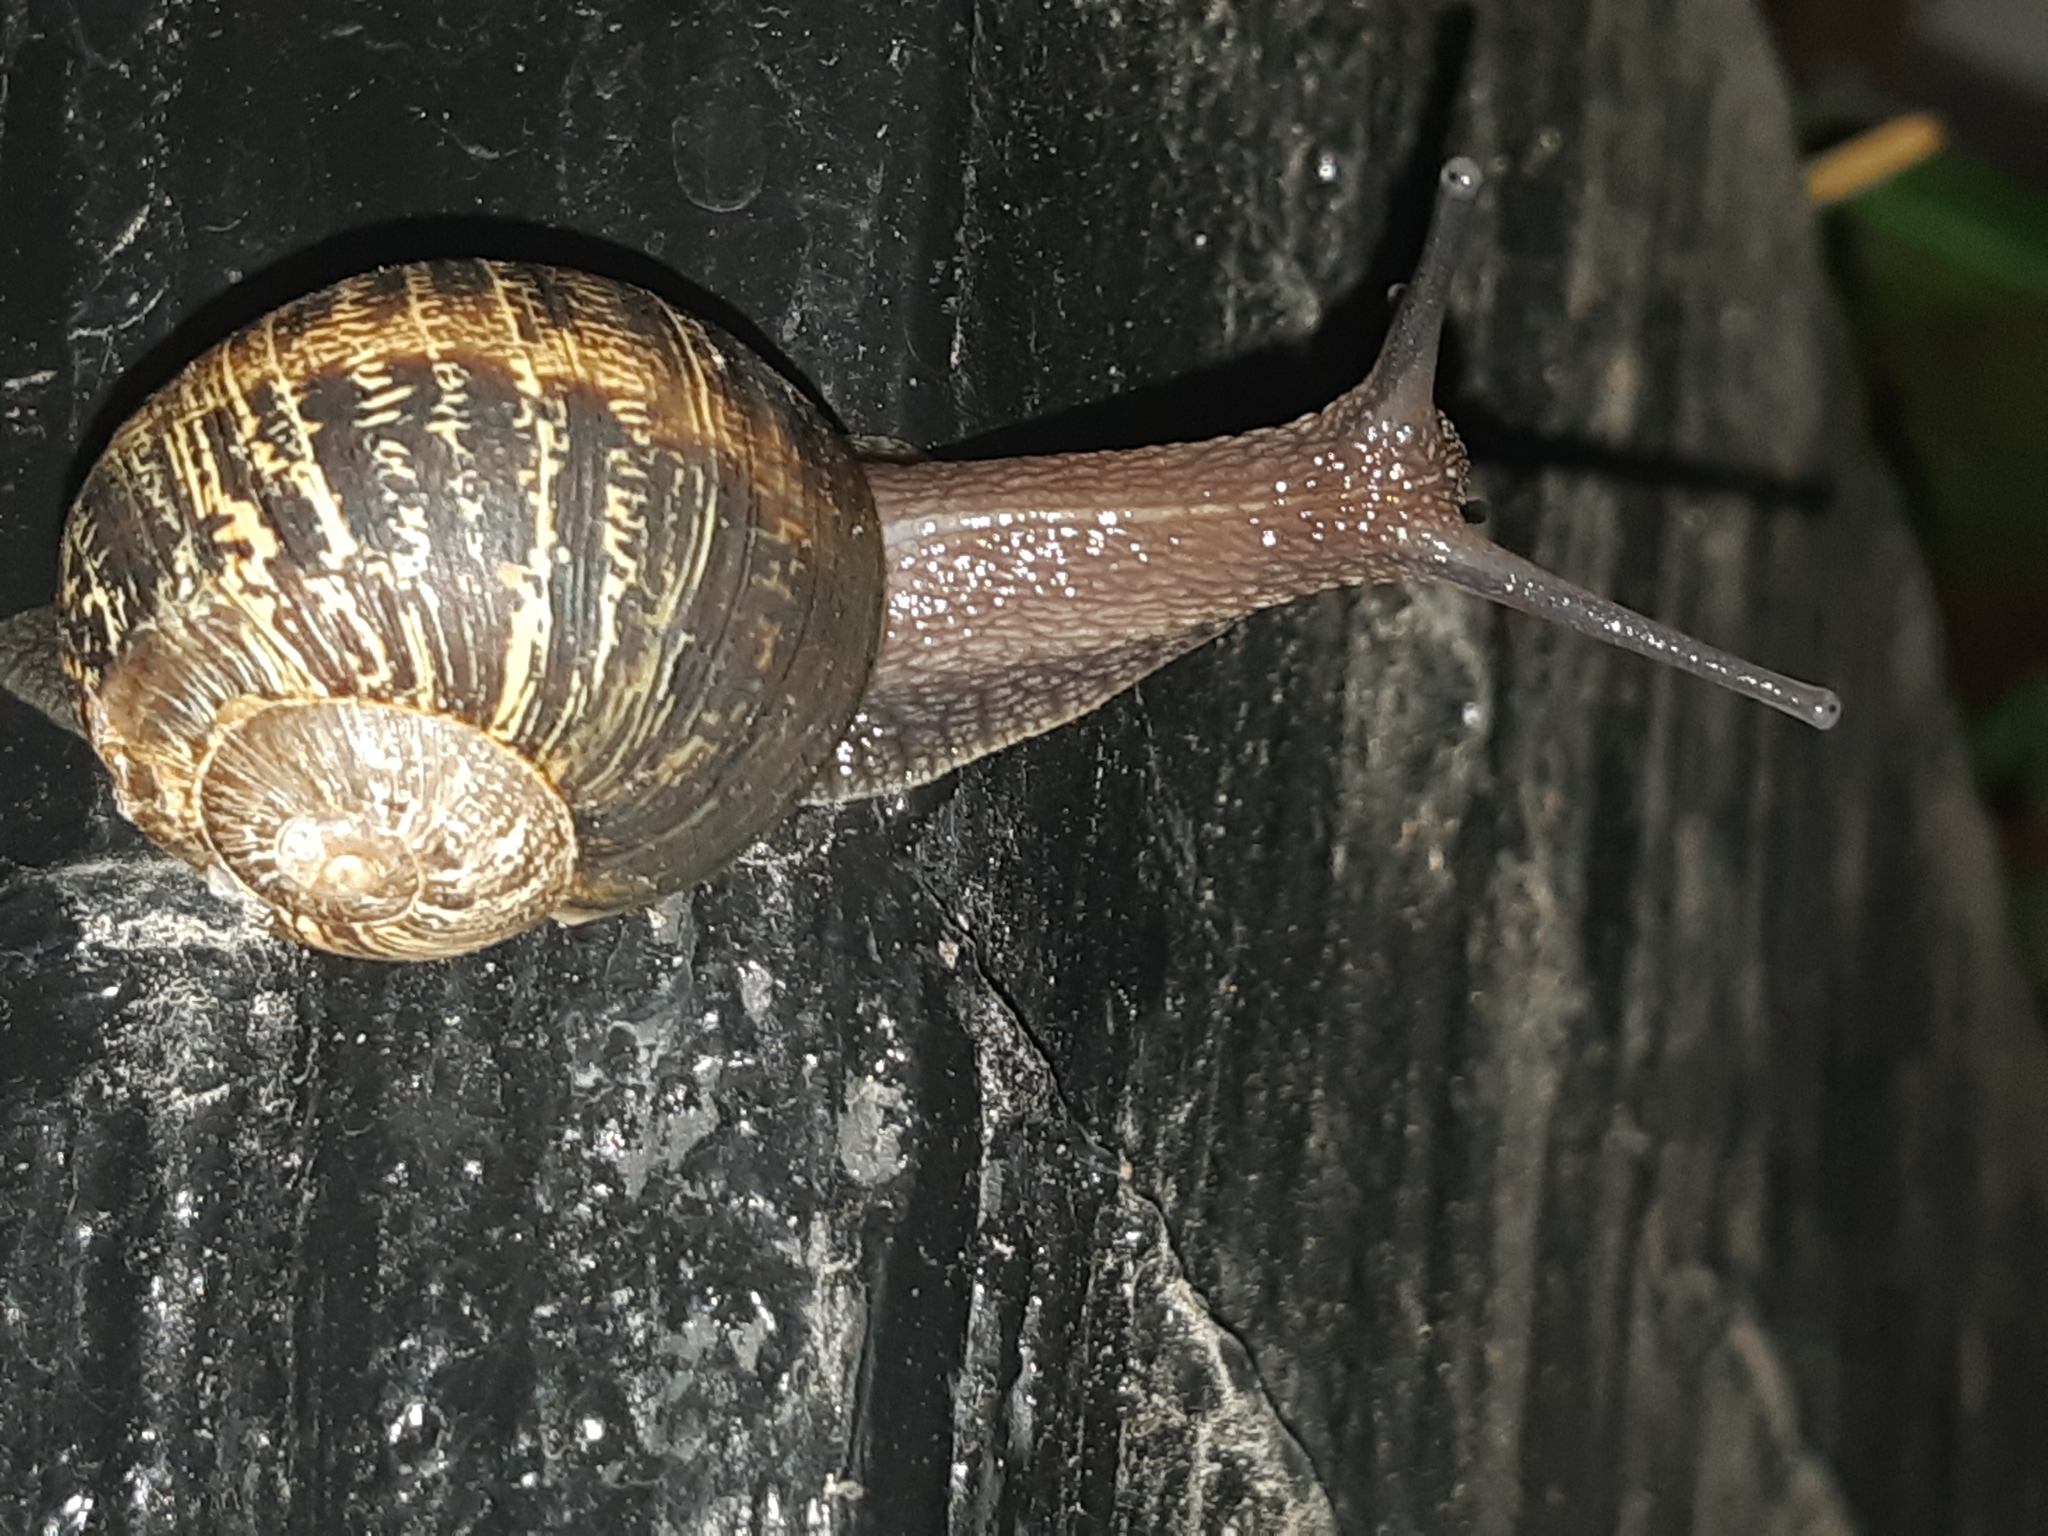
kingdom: Animalia
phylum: Mollusca
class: Gastropoda
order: Stylommatophora
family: Helicidae
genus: Cornu
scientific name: Cornu aspersum
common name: Brown garden snail
